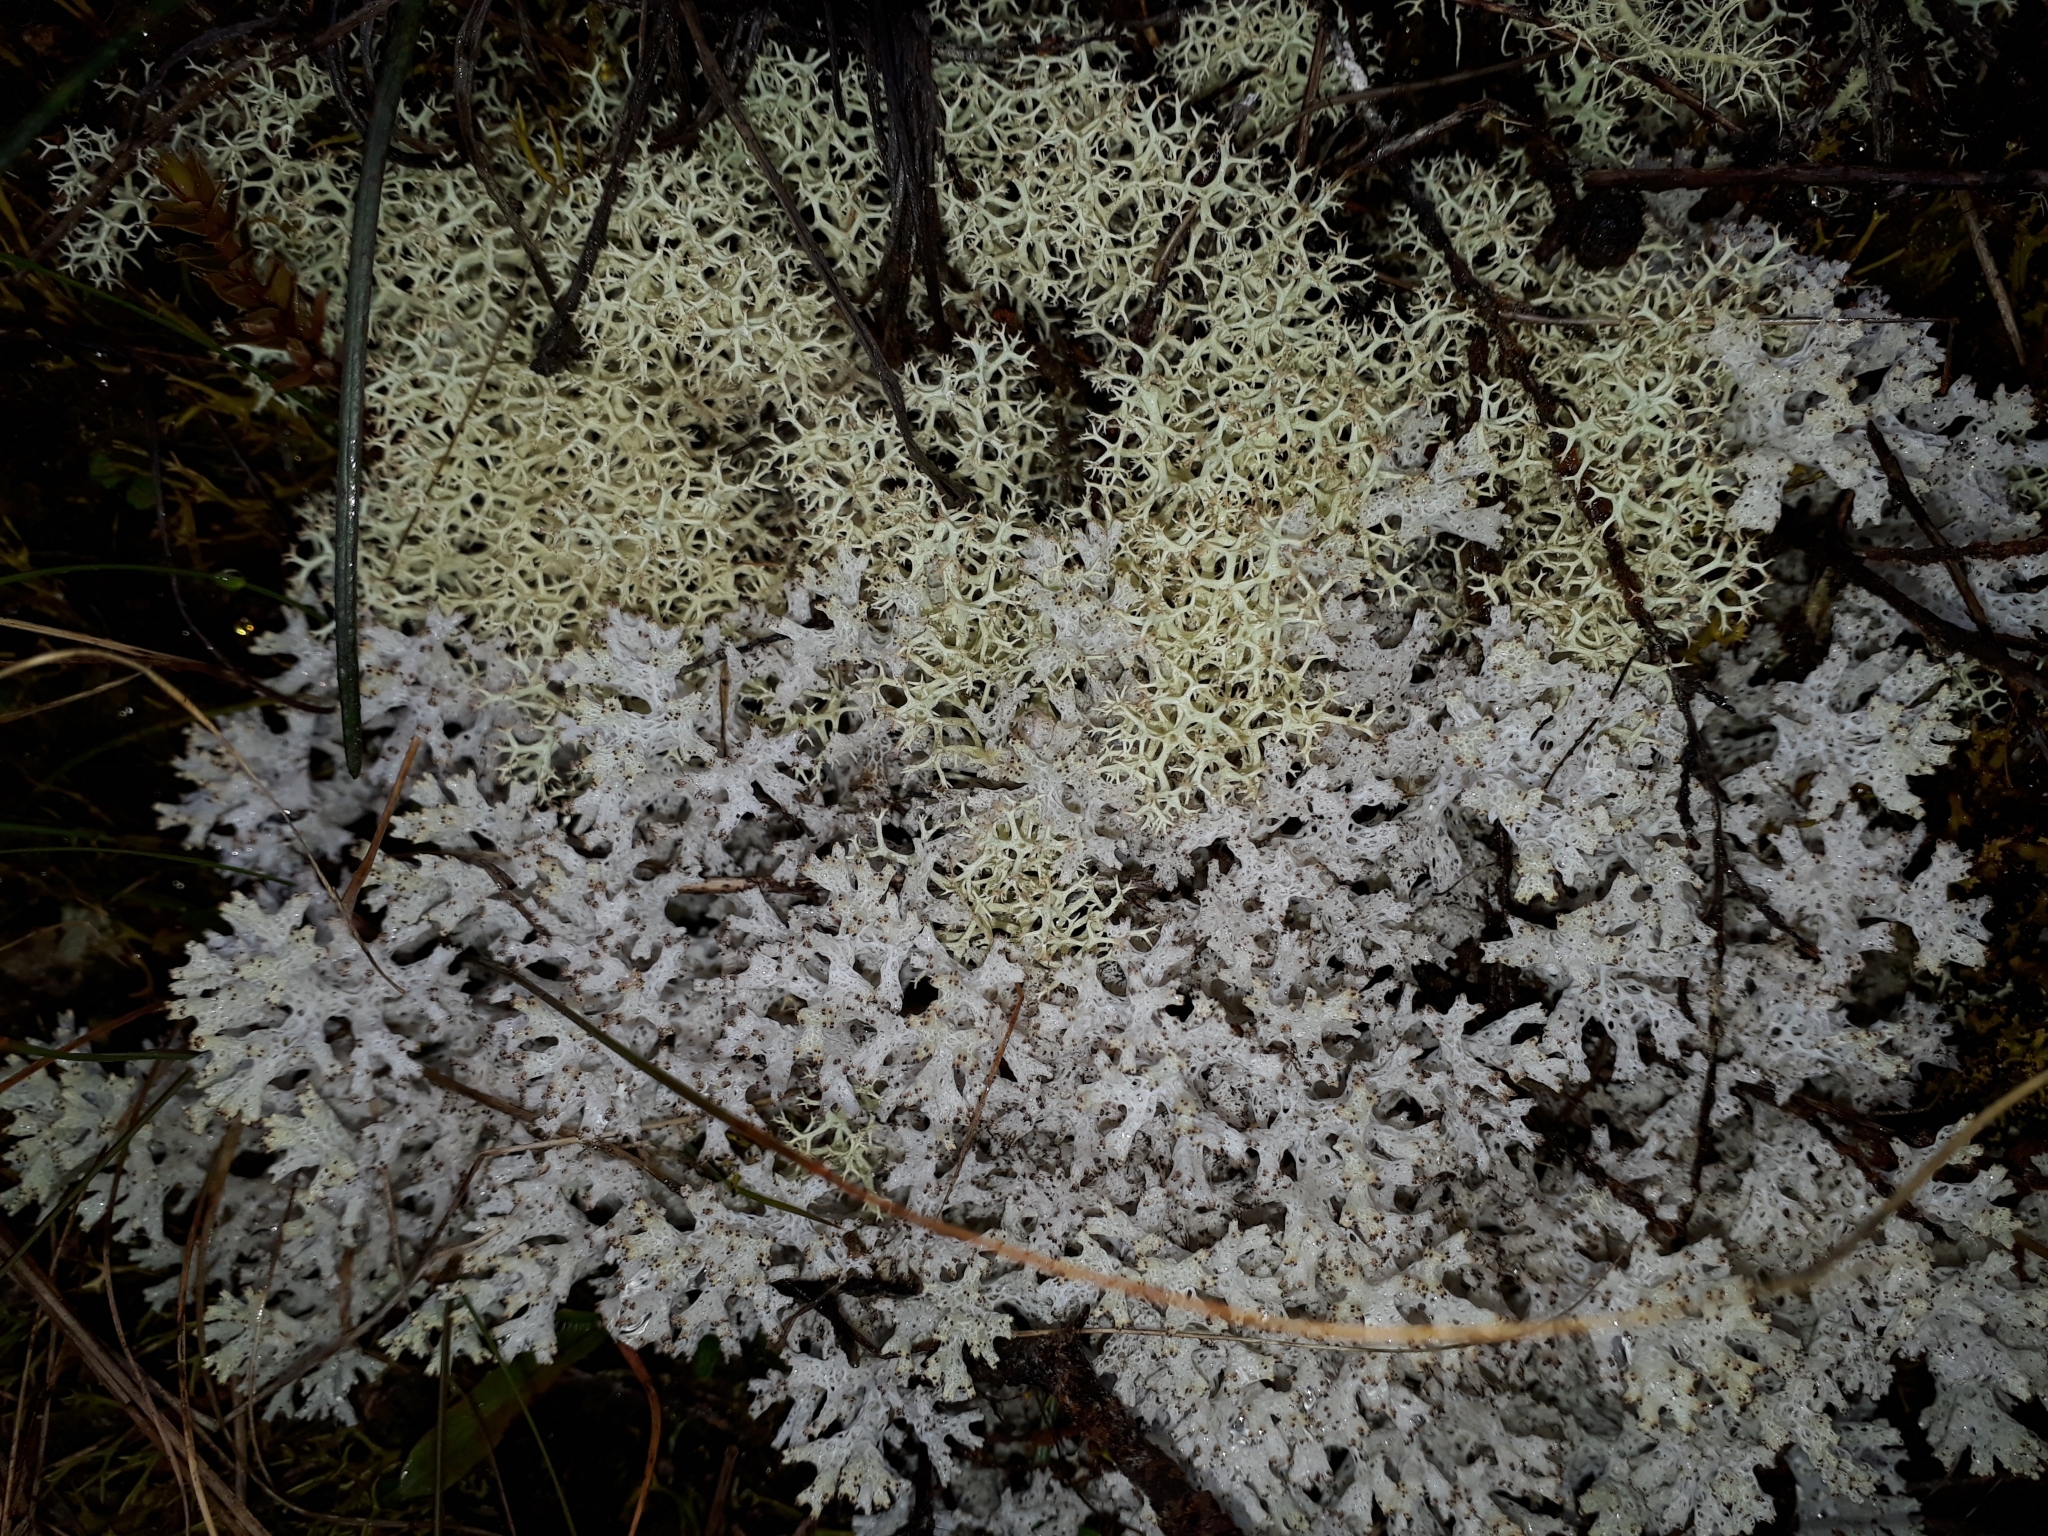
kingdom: Fungi
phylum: Ascomycota
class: Lecanoromycetes
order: Lecanorales
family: Cladoniaceae
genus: Pulchrocladia
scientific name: Pulchrocladia retipora
